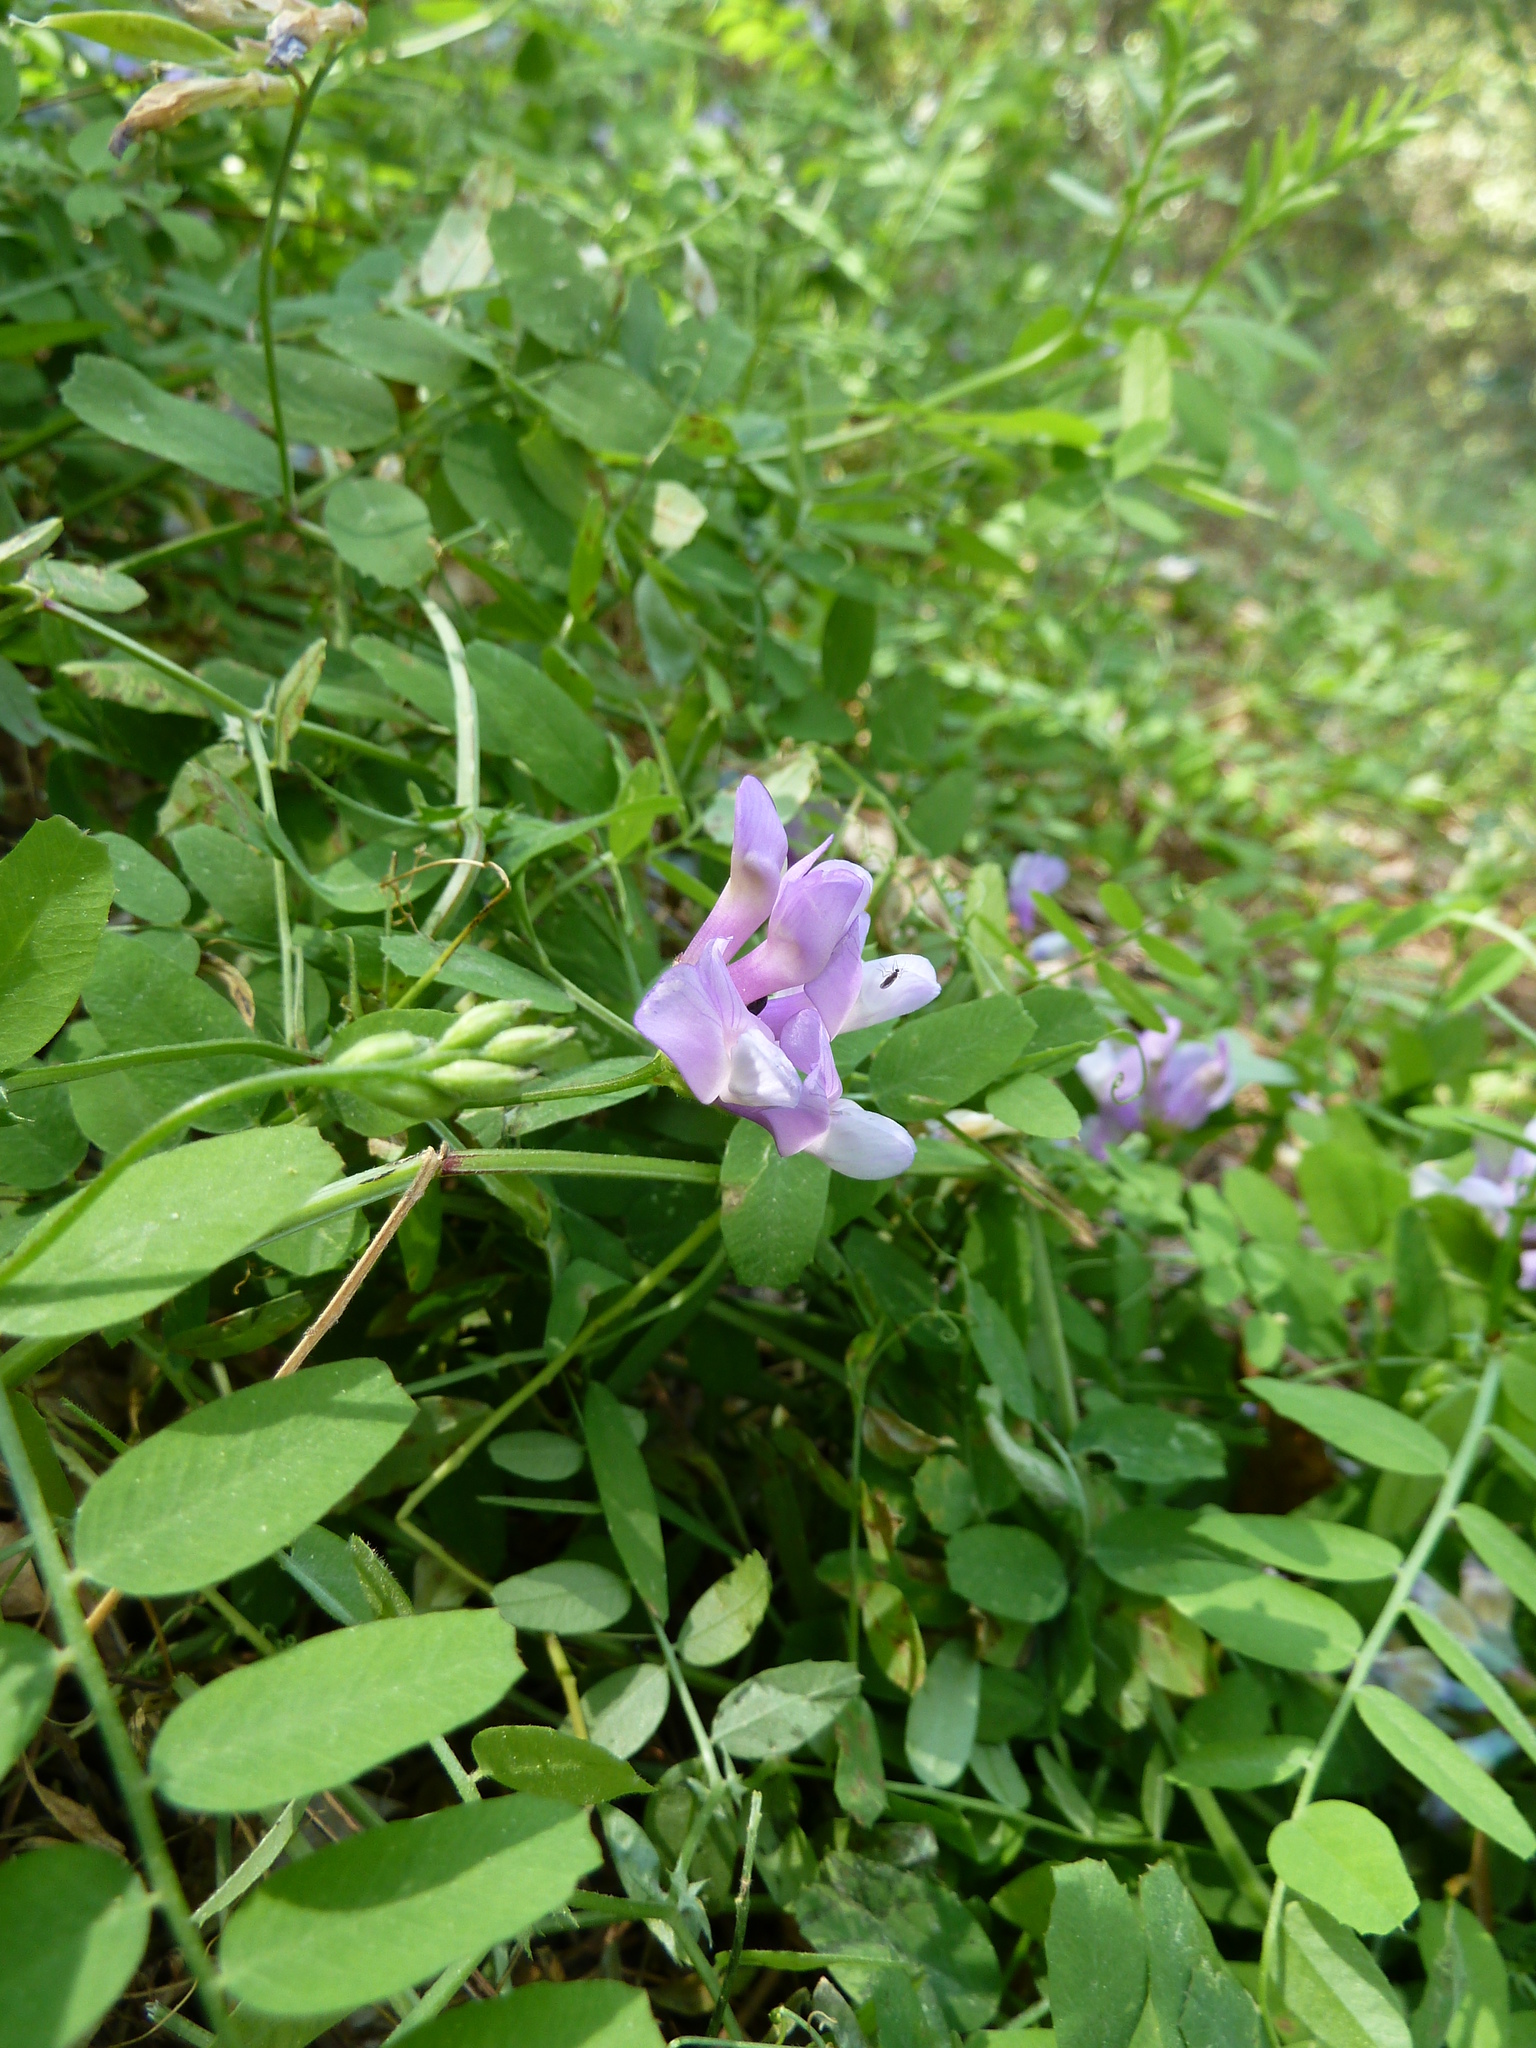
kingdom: Plantae
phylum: Tracheophyta
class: Magnoliopsida
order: Fabales
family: Fabaceae
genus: Vicia
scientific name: Vicia americana
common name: American vetch
